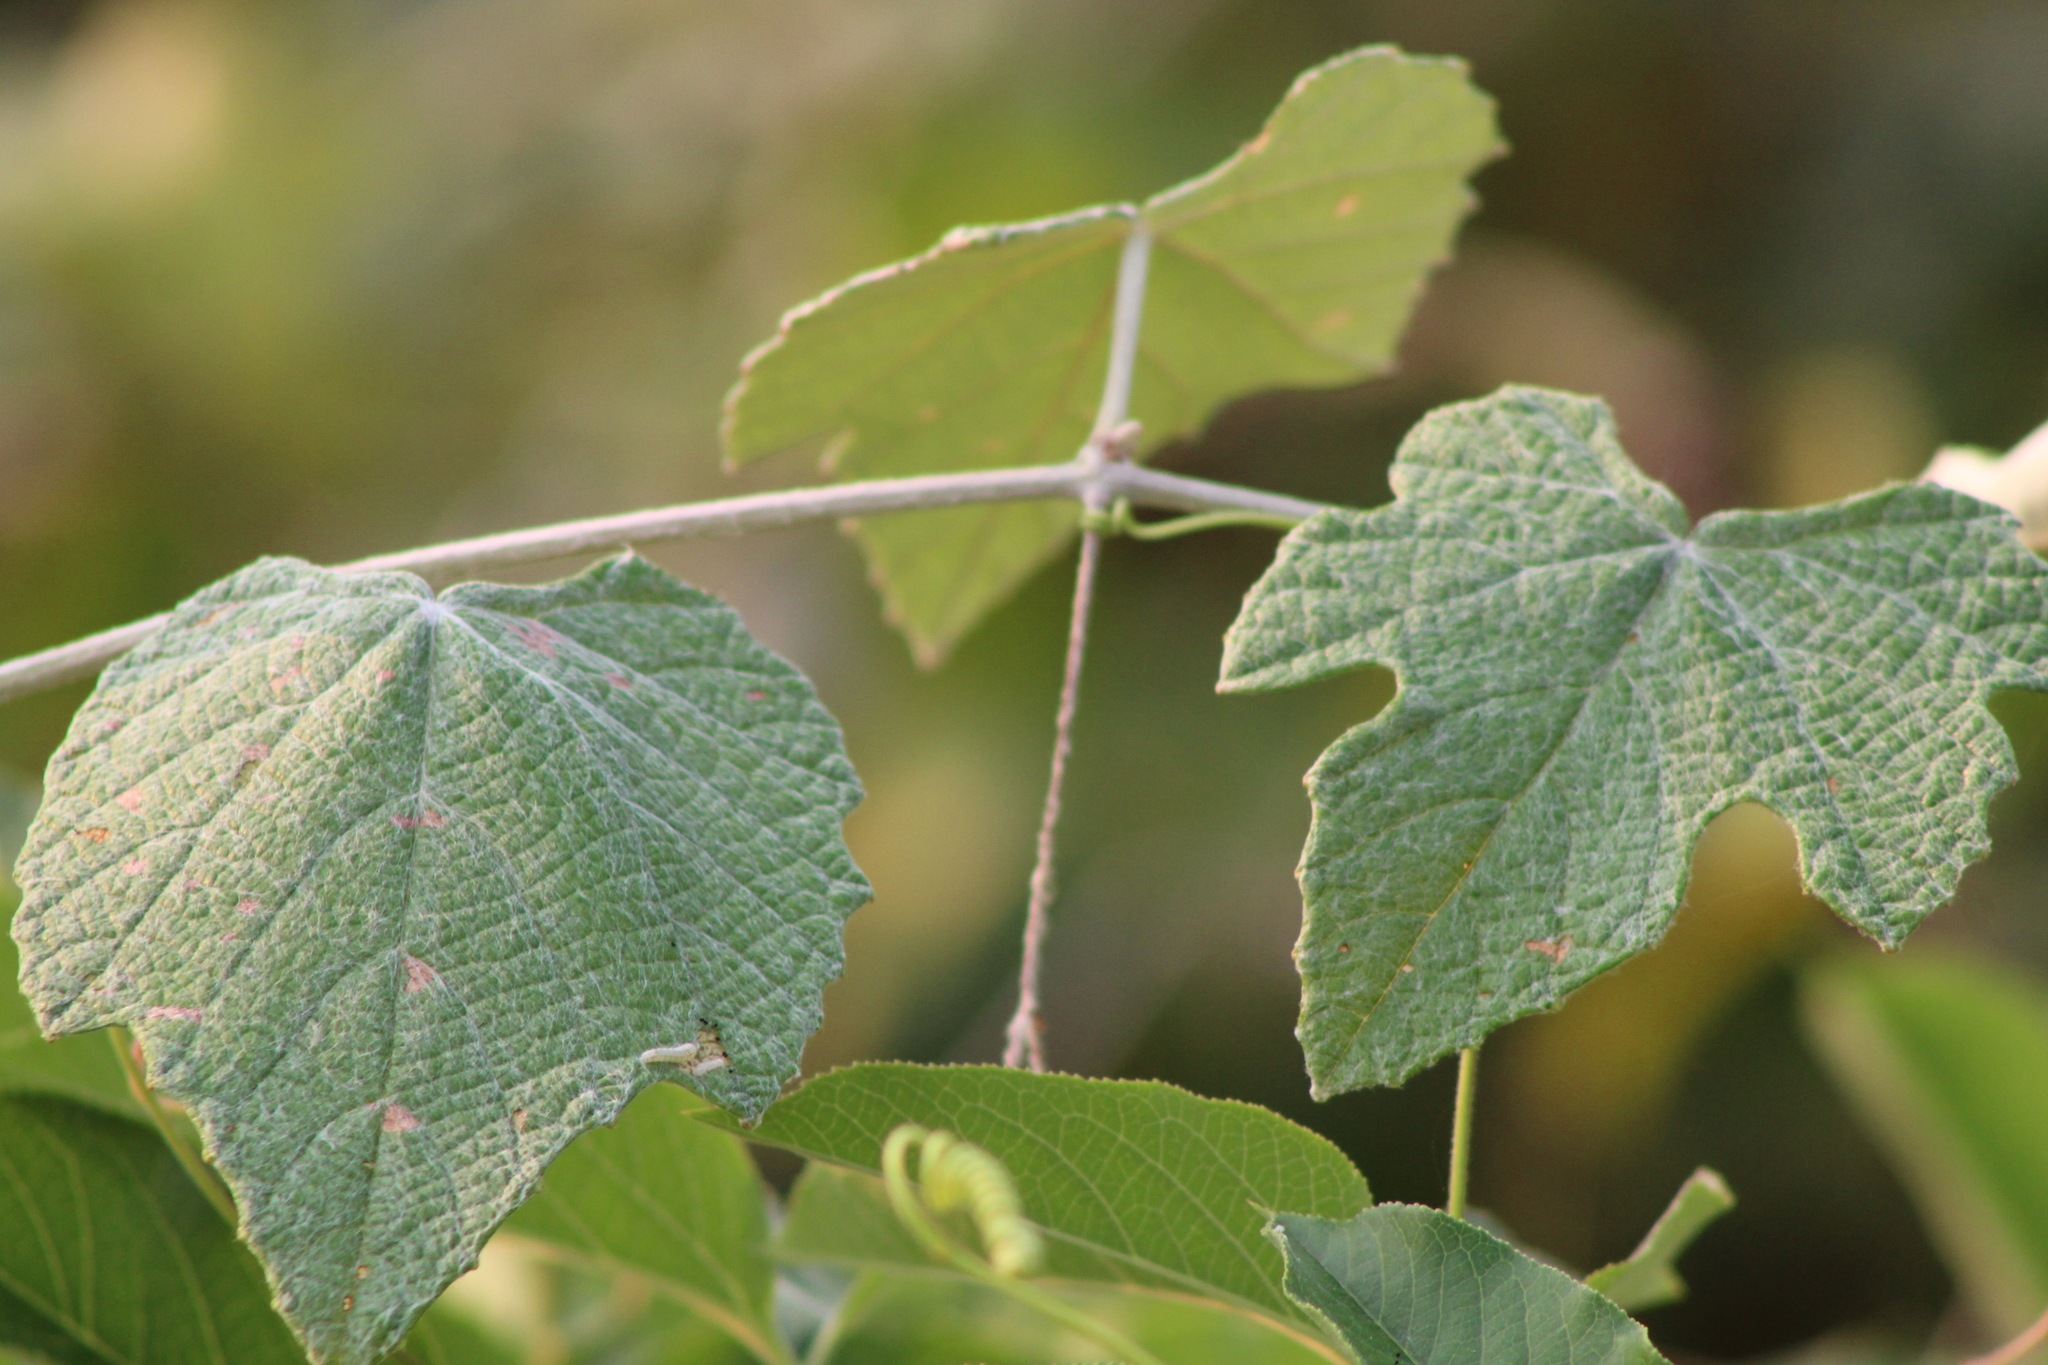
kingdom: Plantae
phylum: Tracheophyta
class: Magnoliopsida
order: Vitales
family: Vitaceae
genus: Vitis
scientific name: Vitis mustangensis
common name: Mustang grape
